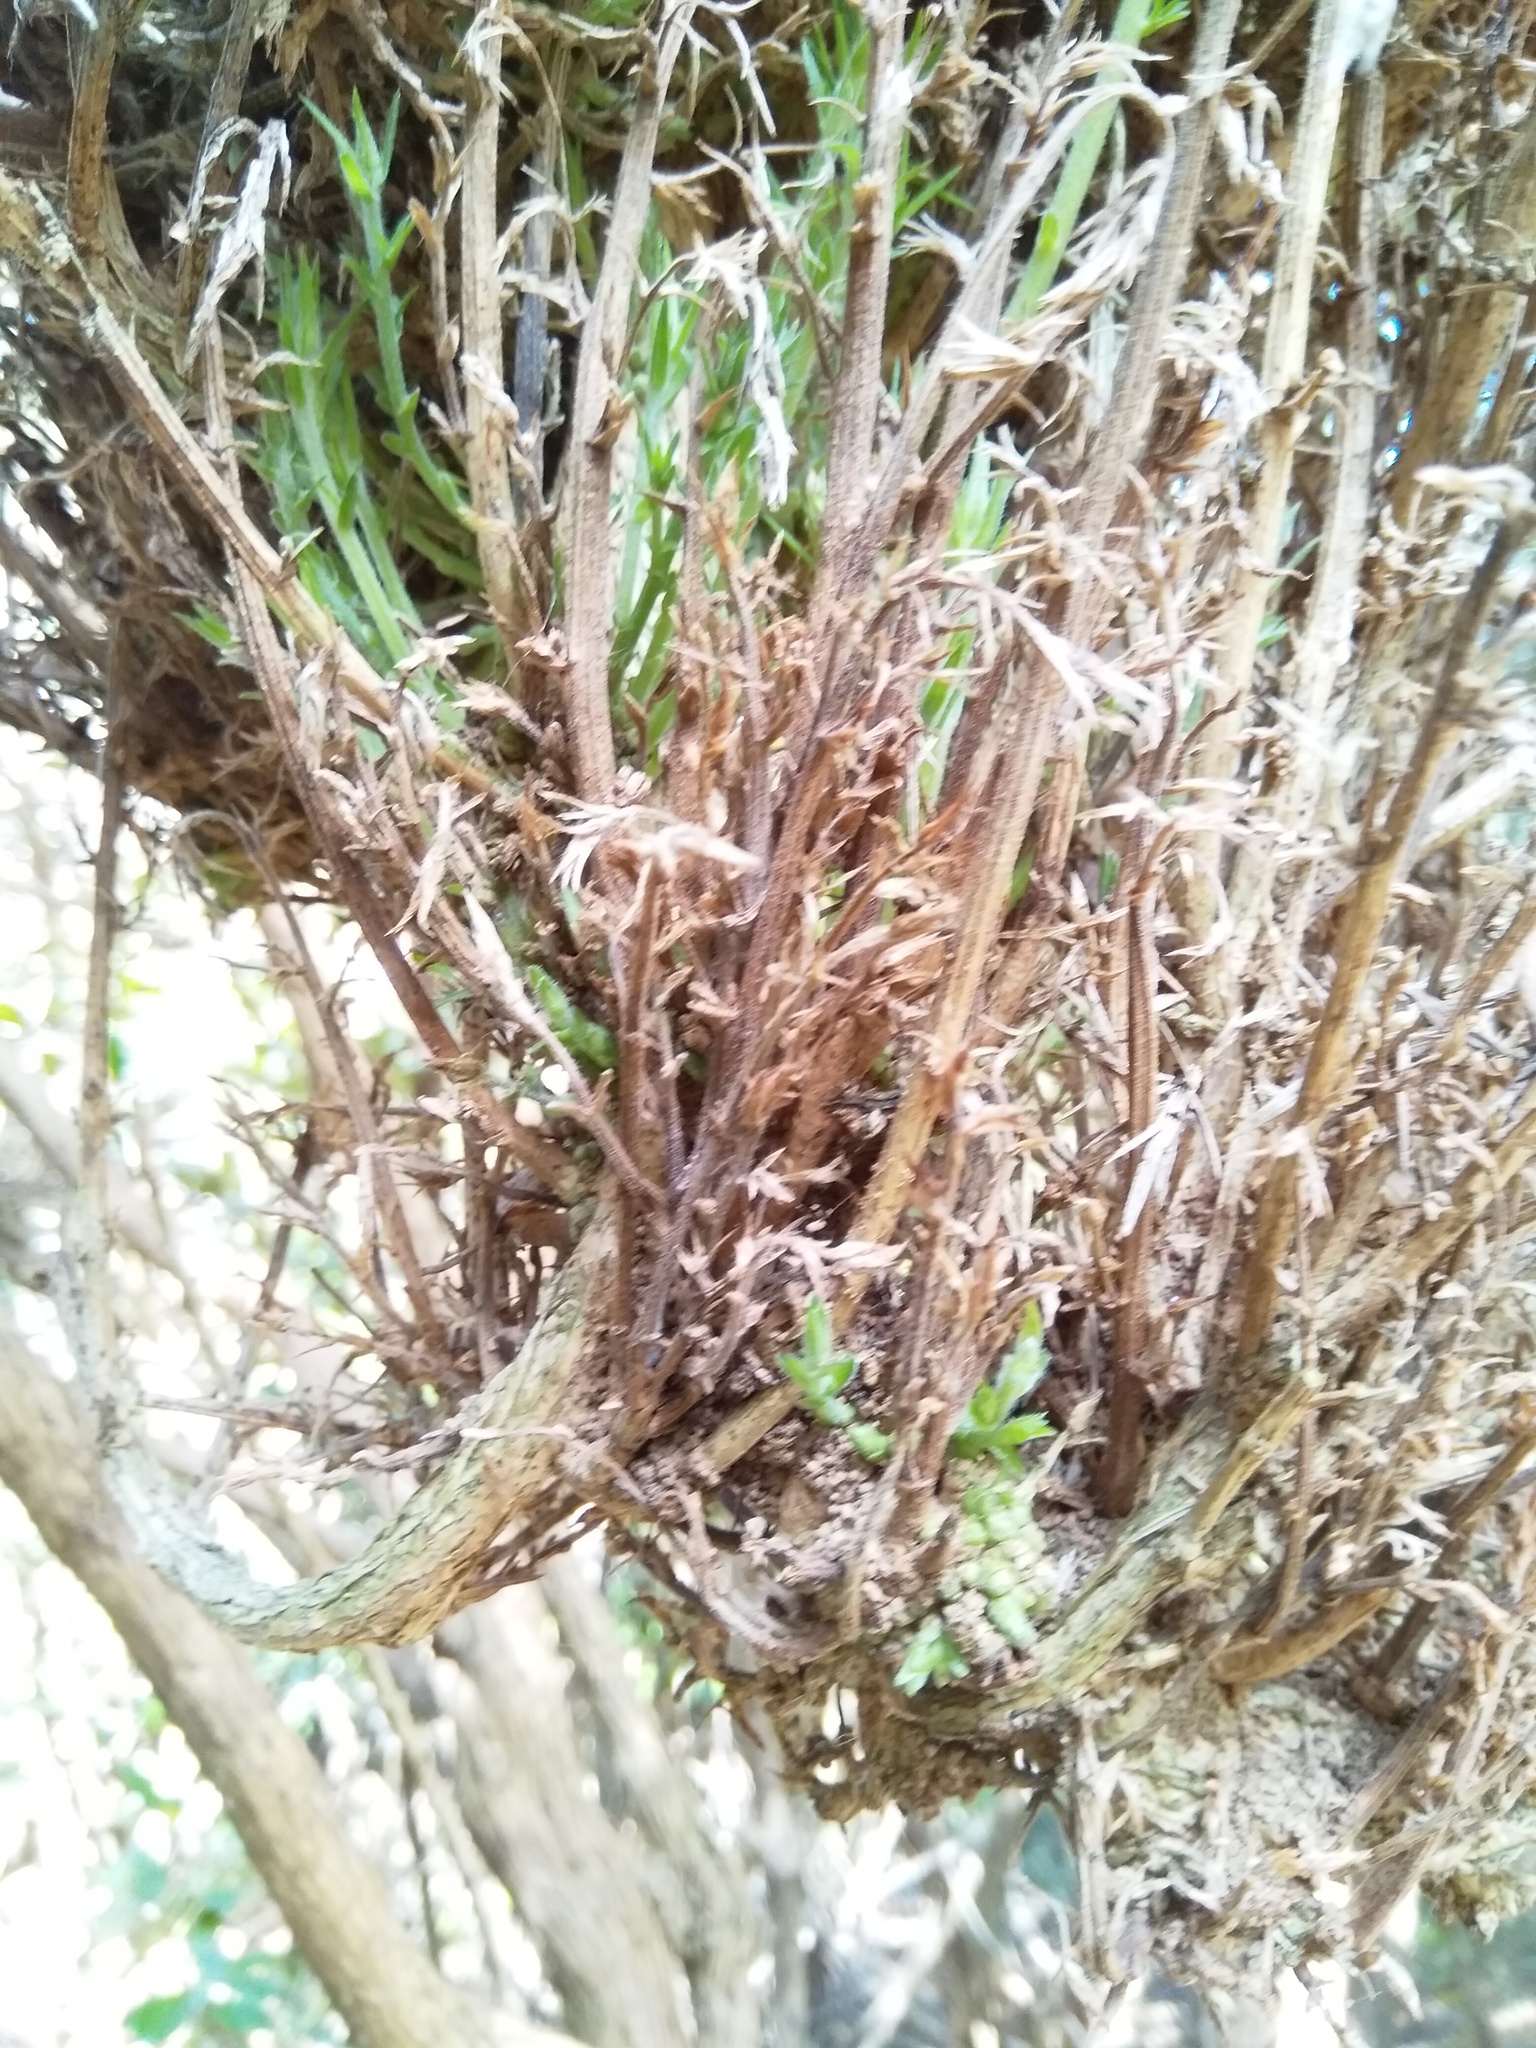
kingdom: Plantae
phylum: Tracheophyta
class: Magnoliopsida
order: Fabales
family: Fabaceae
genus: Ulex
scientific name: Ulex europaeus
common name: Common gorse
